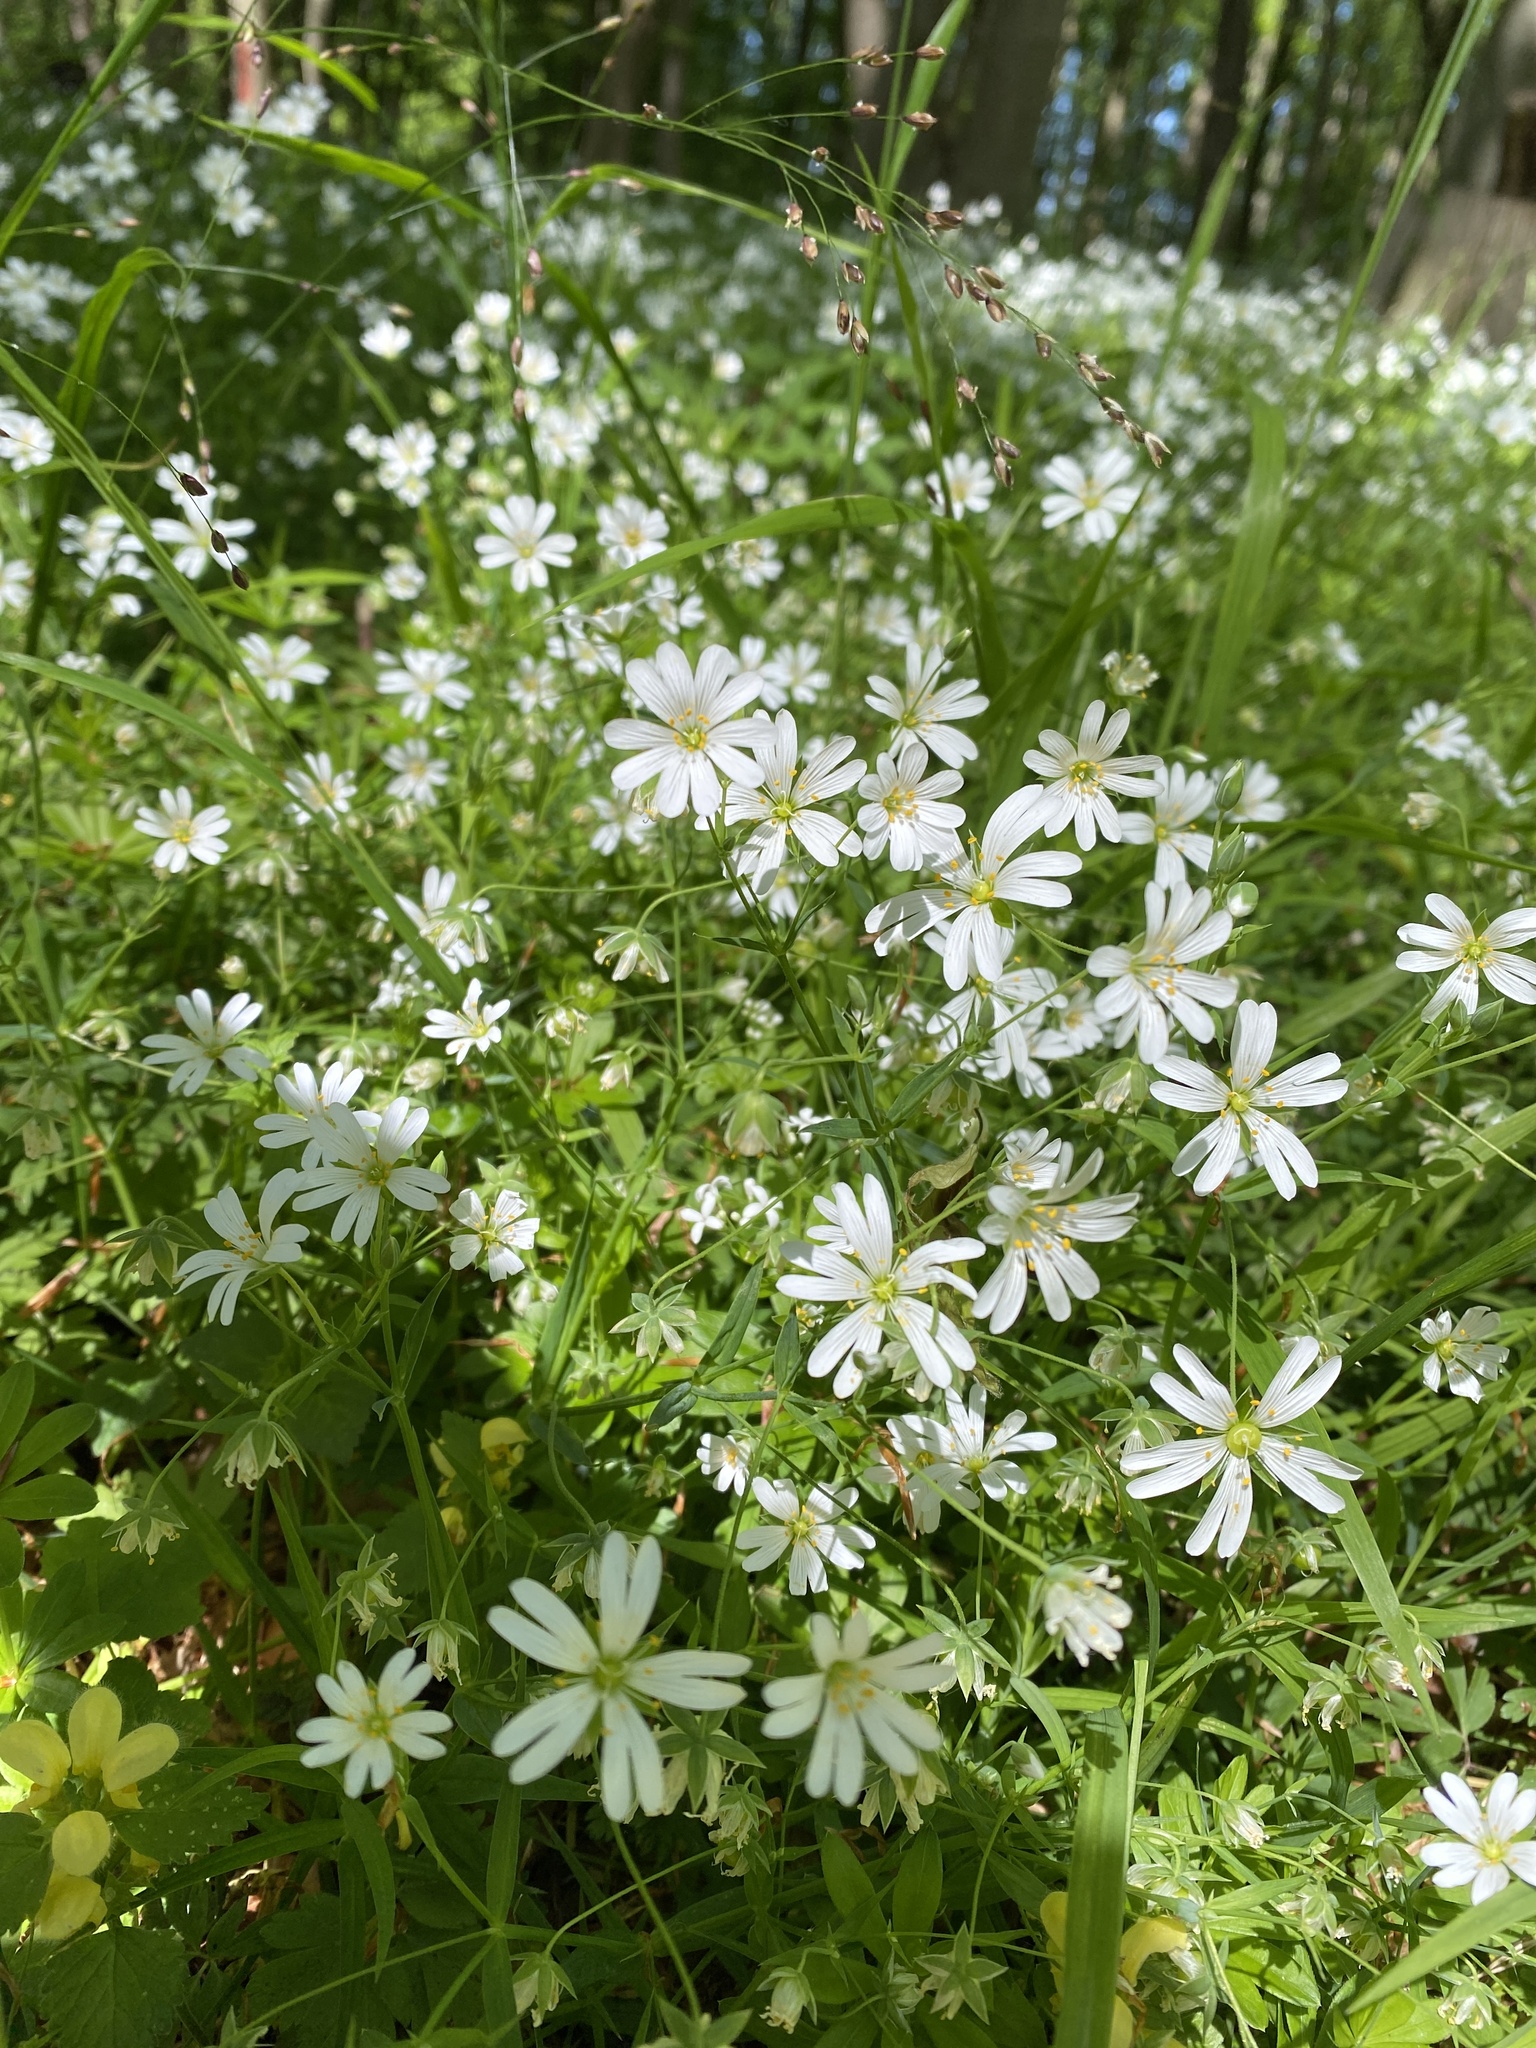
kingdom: Plantae
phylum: Tracheophyta
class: Magnoliopsida
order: Caryophyllales
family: Caryophyllaceae
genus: Rabelera
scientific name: Rabelera holostea
